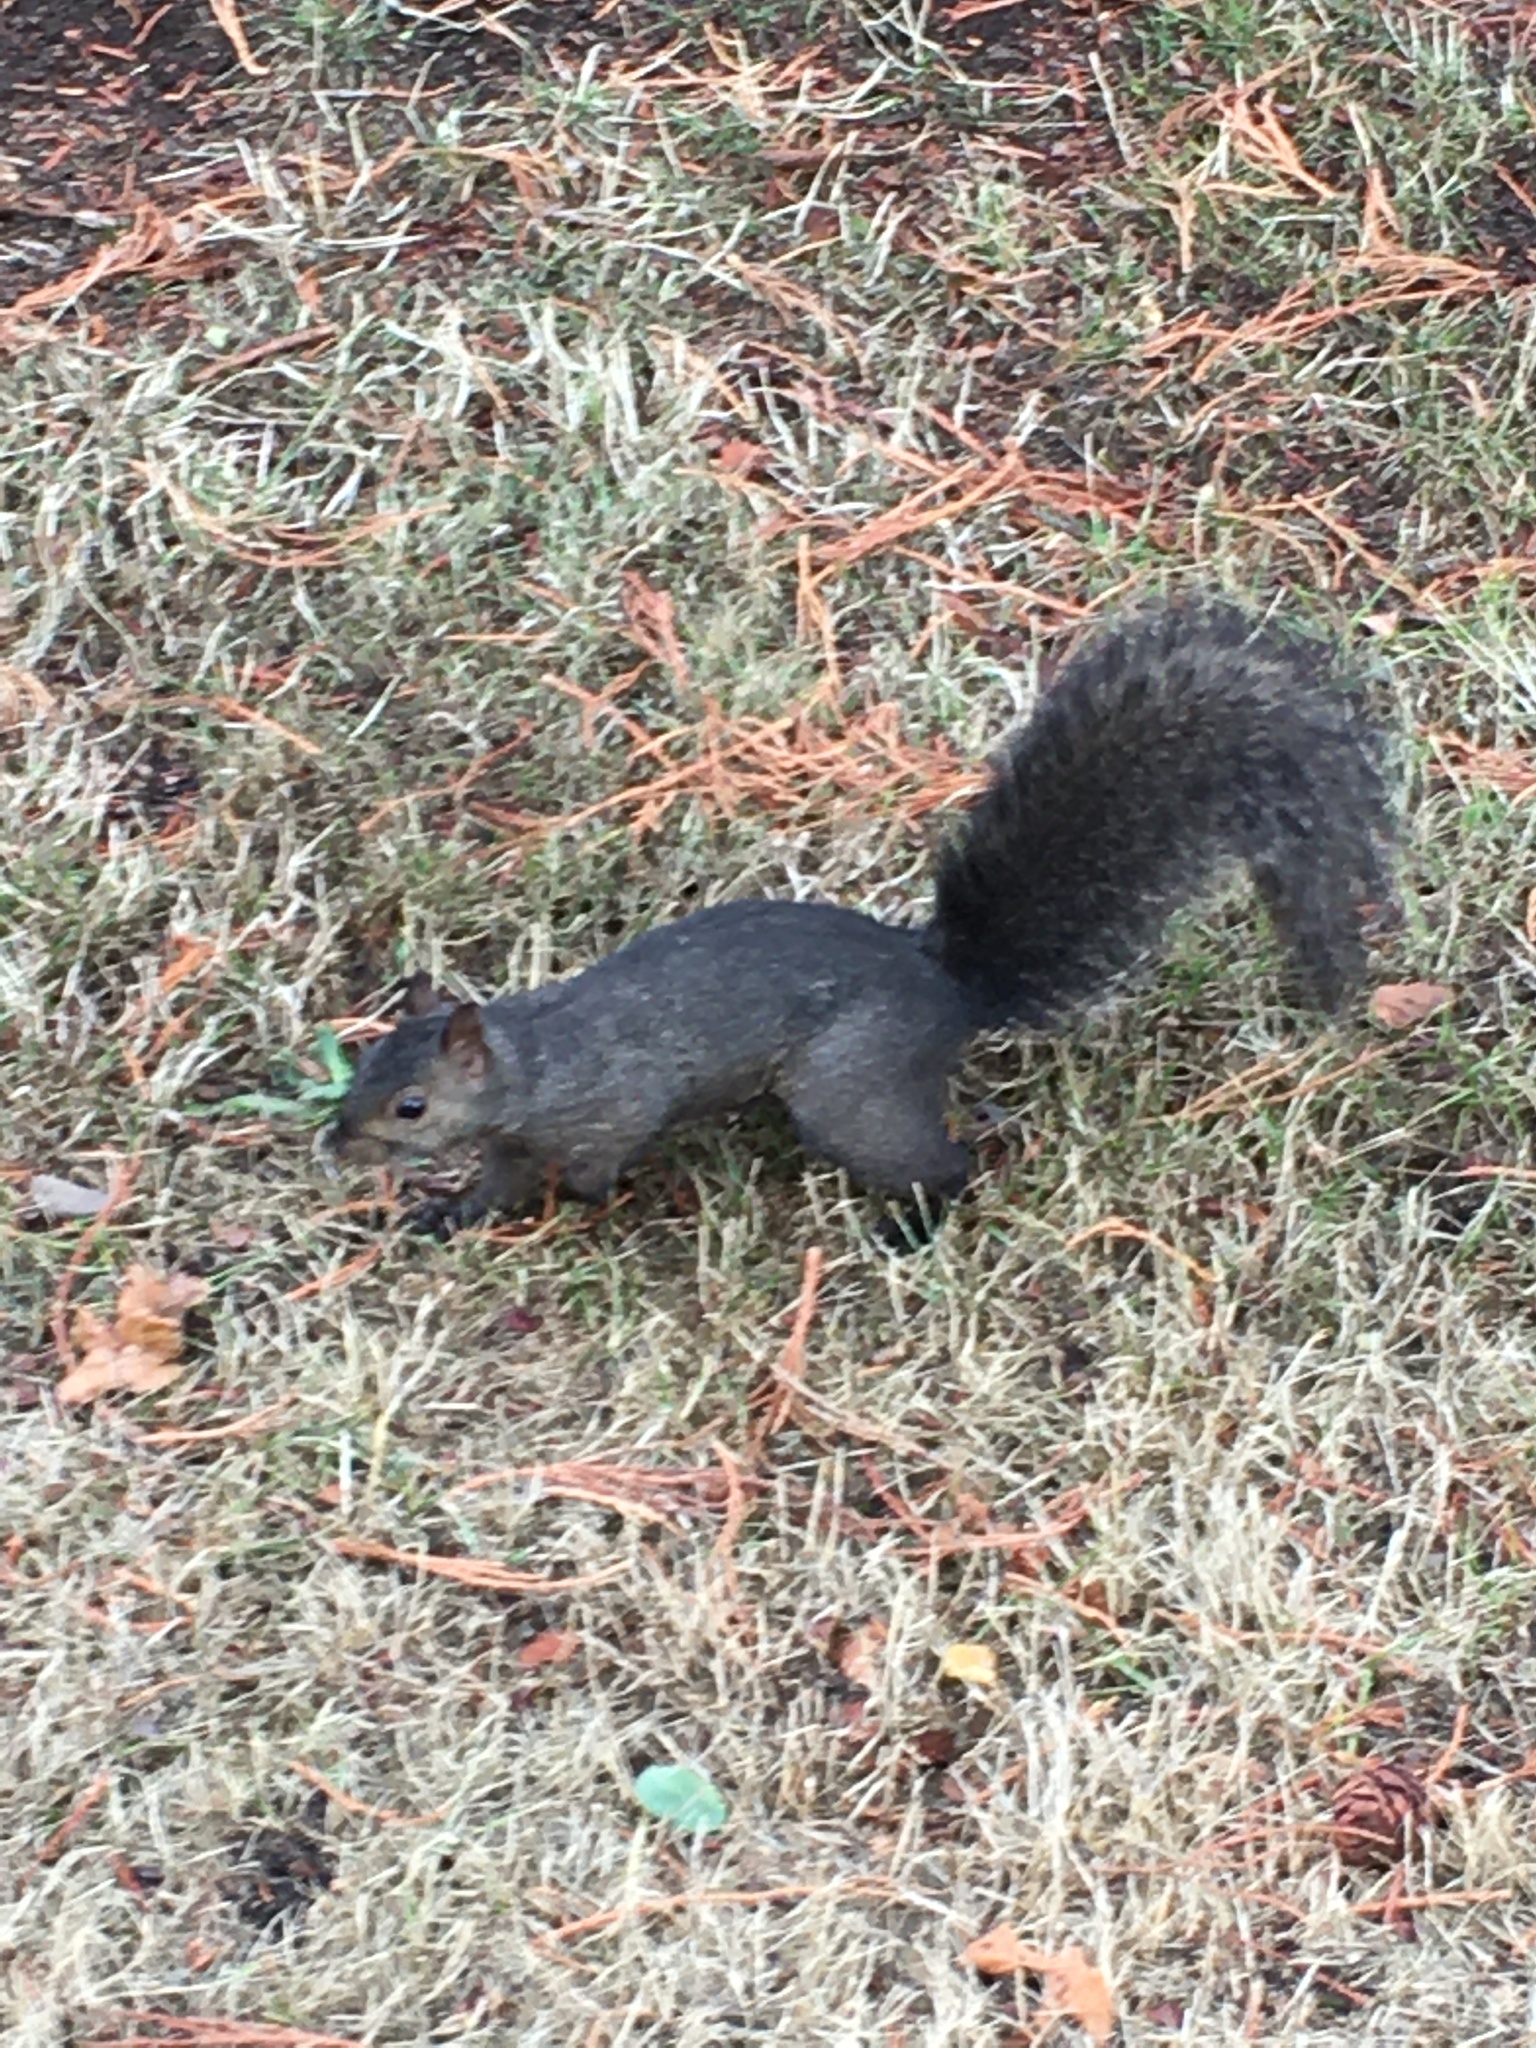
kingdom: Animalia
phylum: Chordata
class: Mammalia
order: Rodentia
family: Sciuridae
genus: Sciurus
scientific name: Sciurus carolinensis
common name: Eastern gray squirrel
